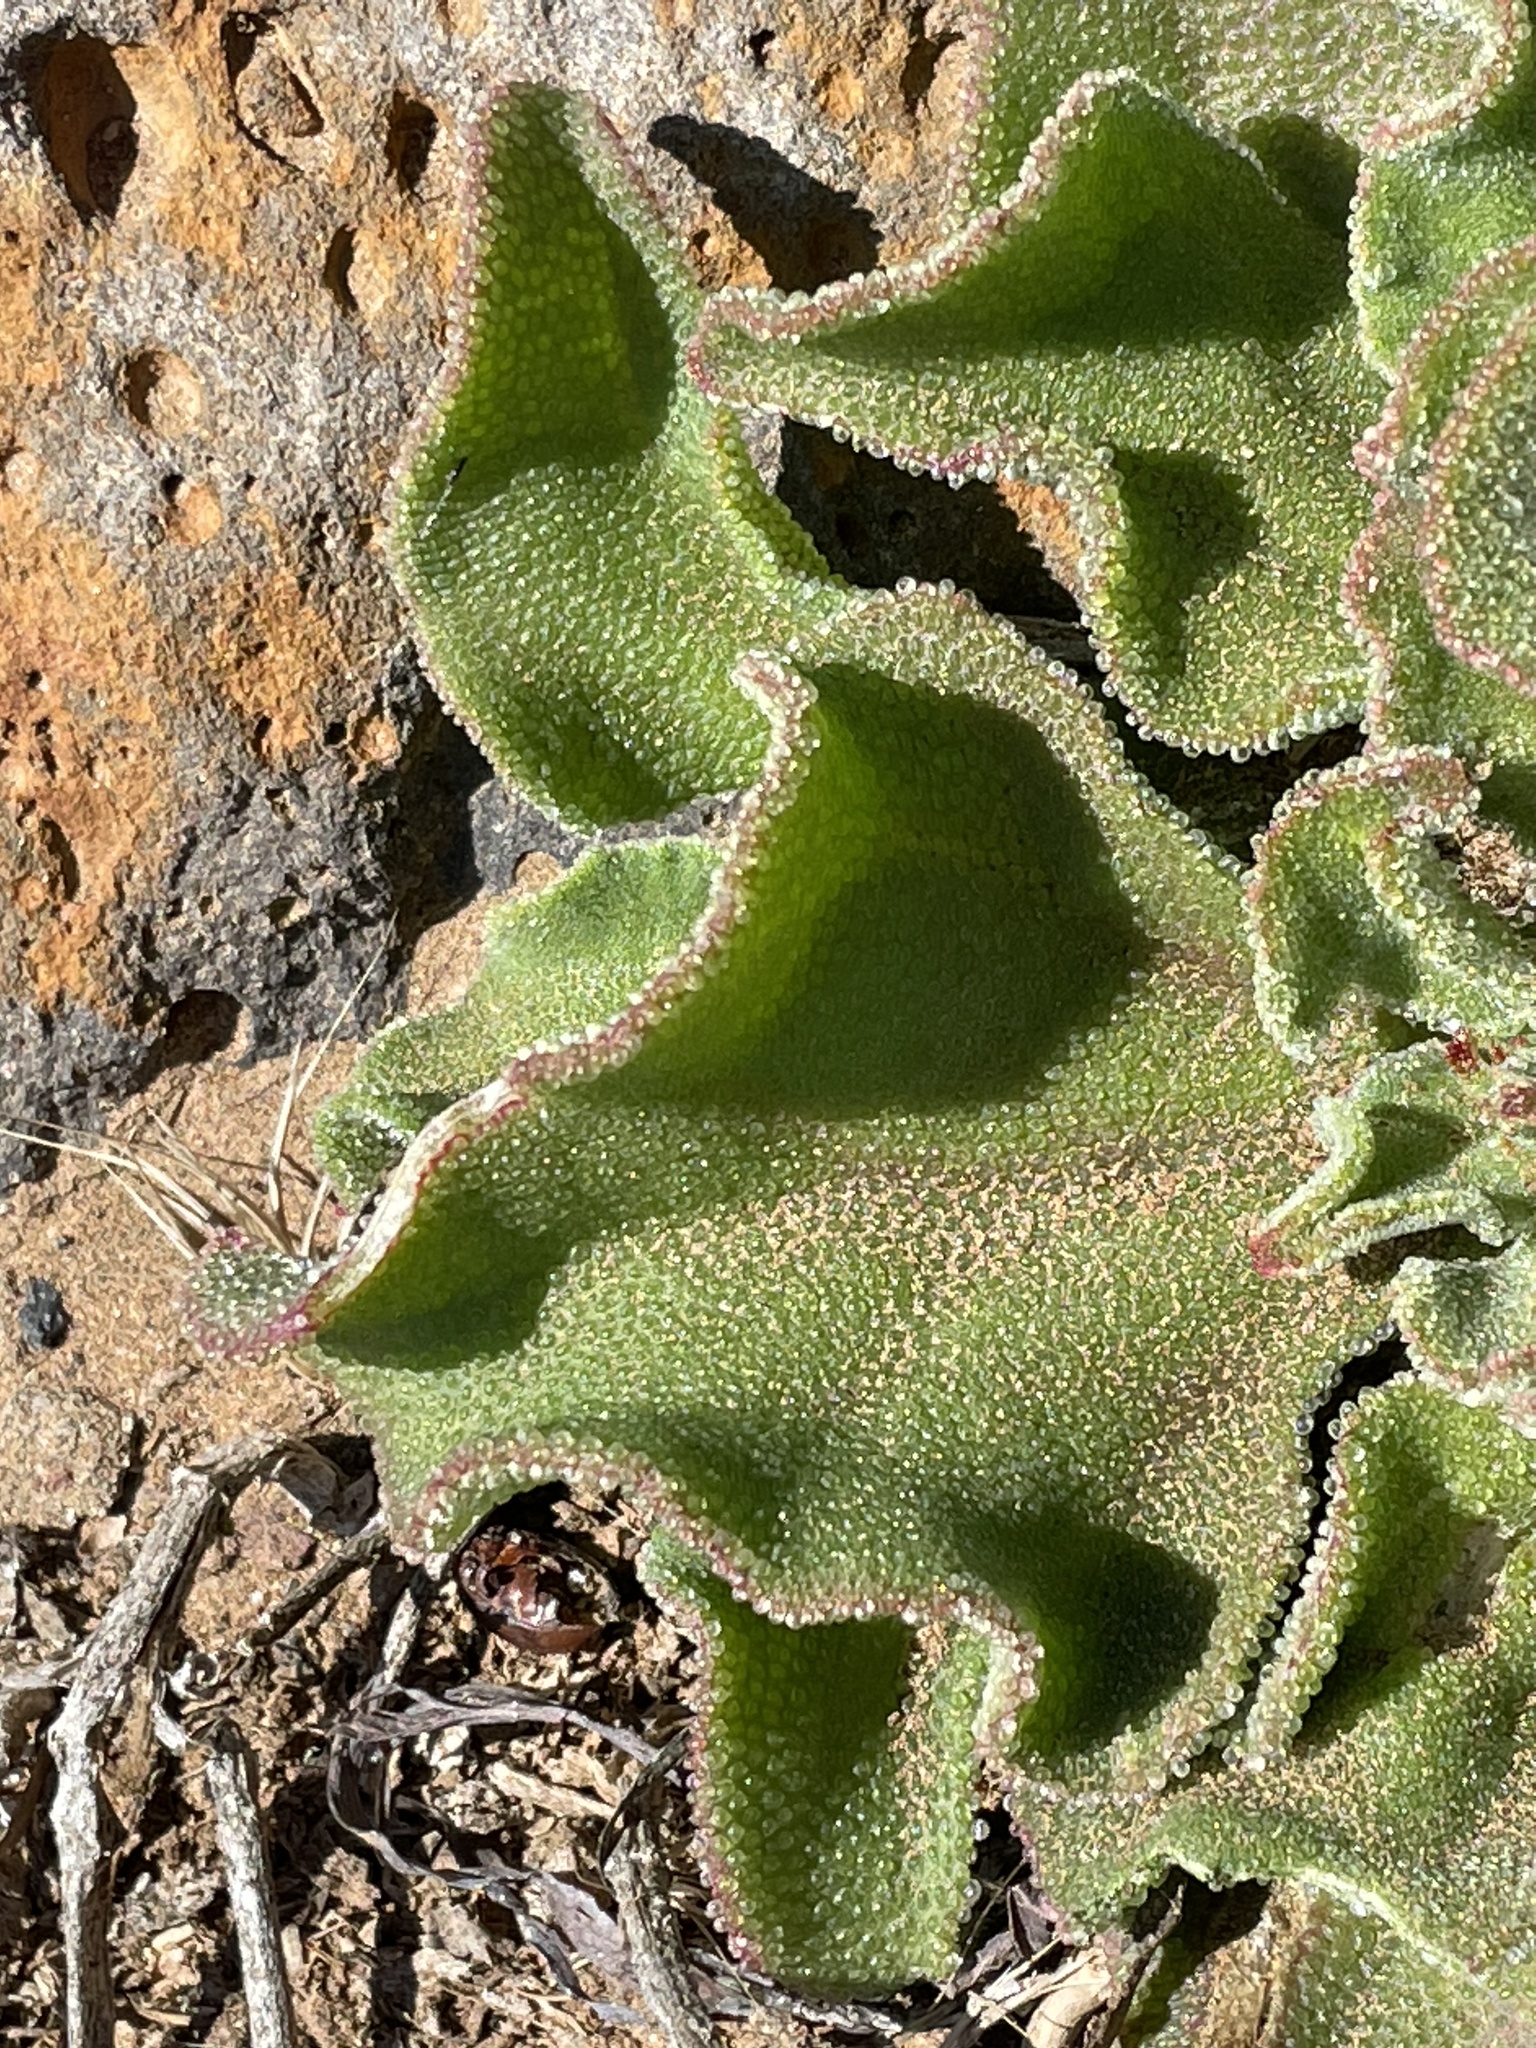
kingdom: Plantae
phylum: Tracheophyta
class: Magnoliopsida
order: Caryophyllales
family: Aizoaceae
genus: Mesembryanthemum
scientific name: Mesembryanthemum crystallinum
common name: Common iceplant
